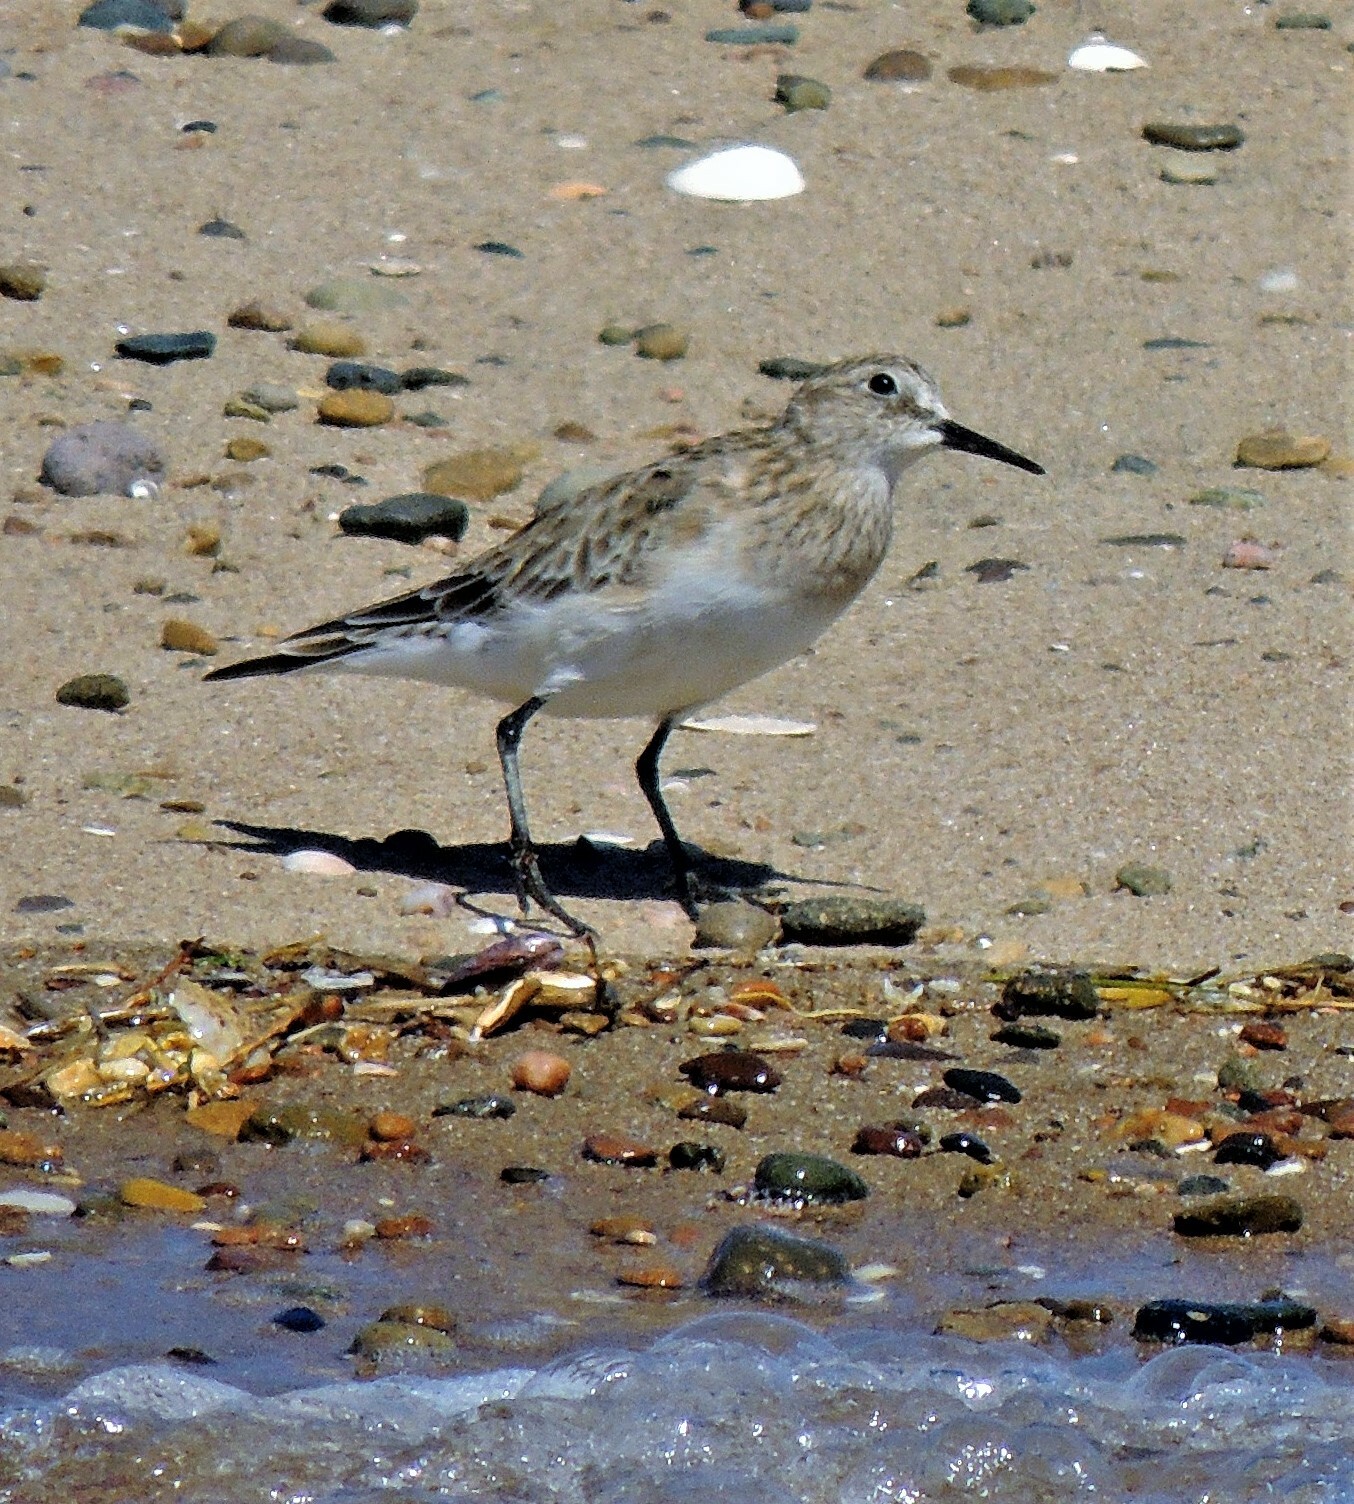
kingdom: Animalia
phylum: Chordata
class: Aves
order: Charadriiformes
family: Scolopacidae
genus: Calidris
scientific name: Calidris bairdii
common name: Baird's sandpiper
